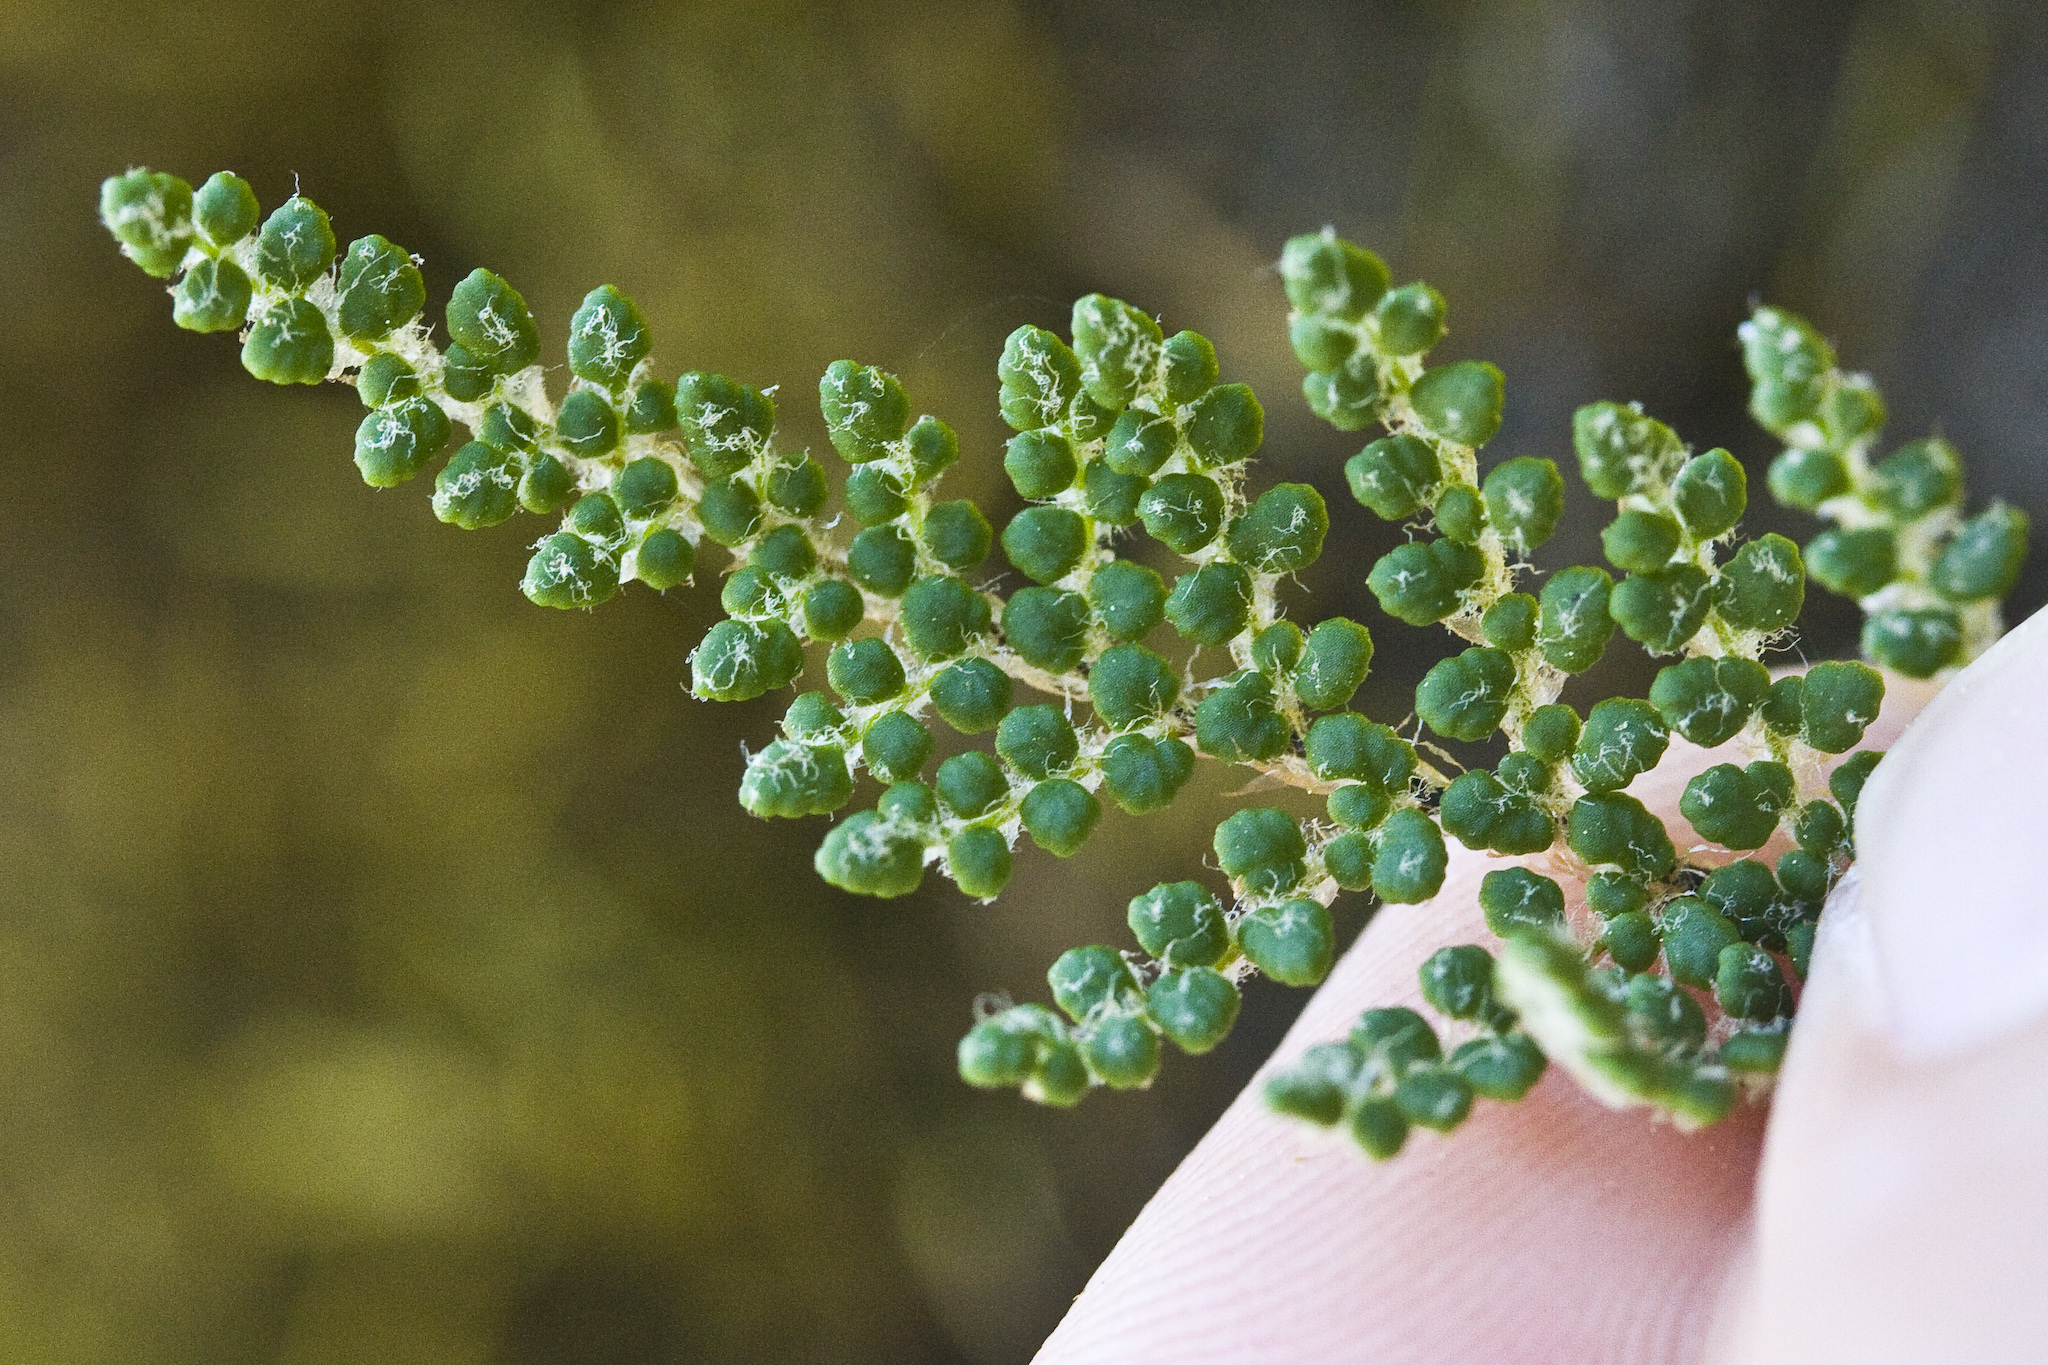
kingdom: Plantae
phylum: Tracheophyta
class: Polypodiopsida
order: Polypodiales
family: Pteridaceae
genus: Myriopteris
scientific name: Myriopteris intertexta
